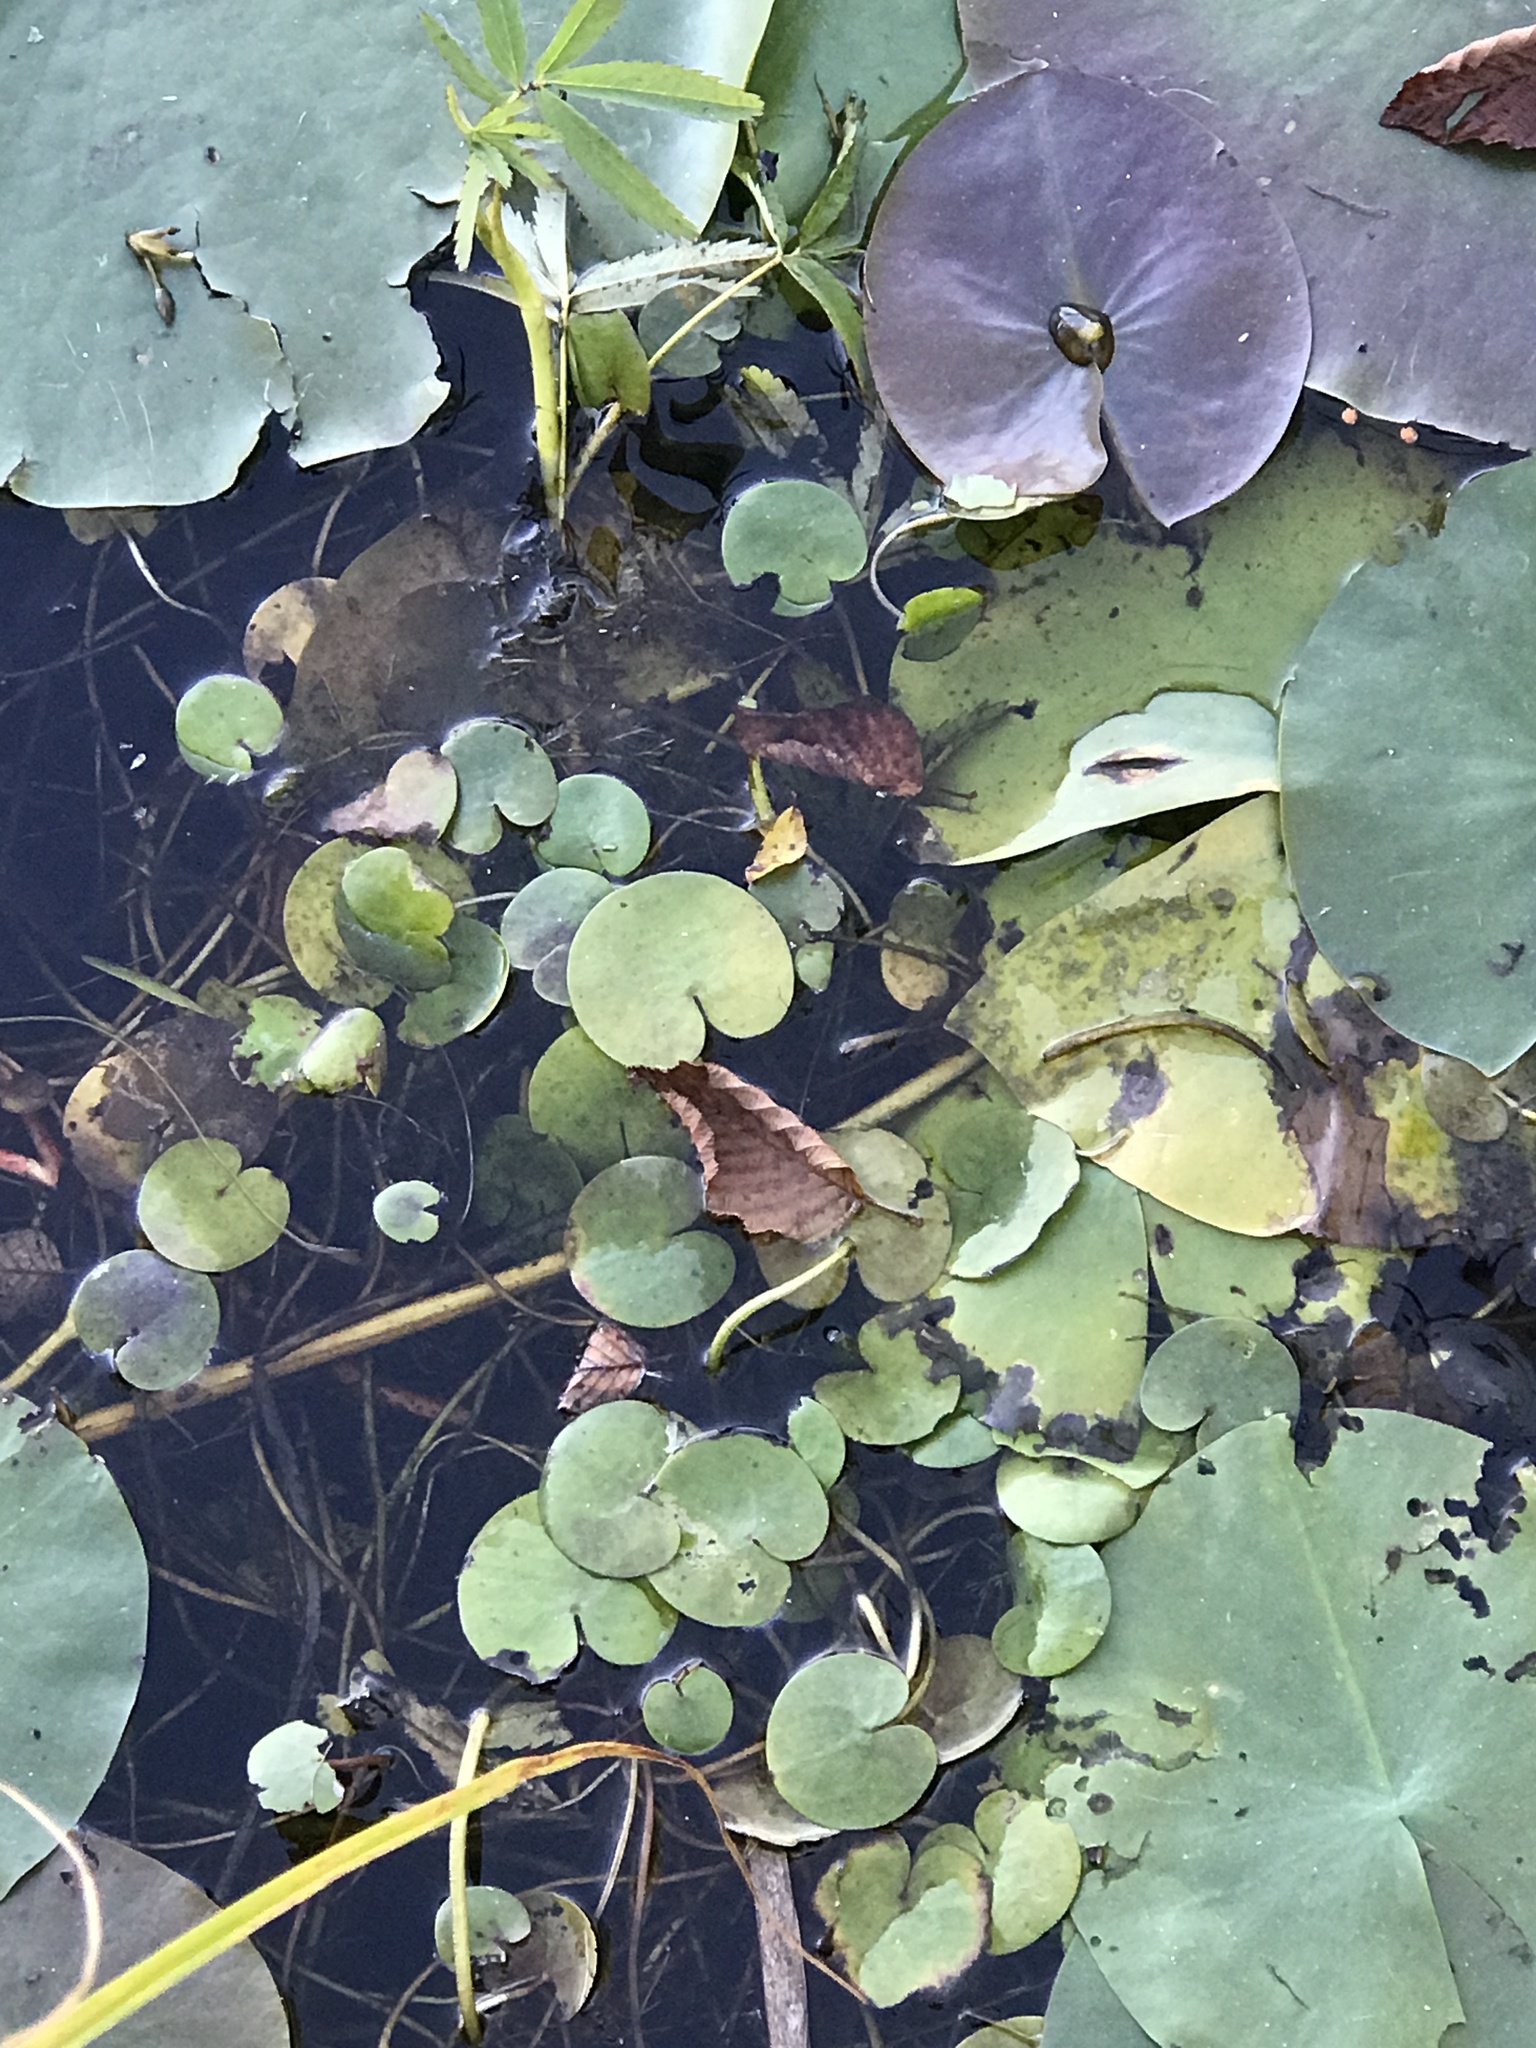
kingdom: Plantae
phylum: Tracheophyta
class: Liliopsida
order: Alismatales
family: Hydrocharitaceae
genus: Hydrocharis
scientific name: Hydrocharis morsus-ranae
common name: Frogbit
